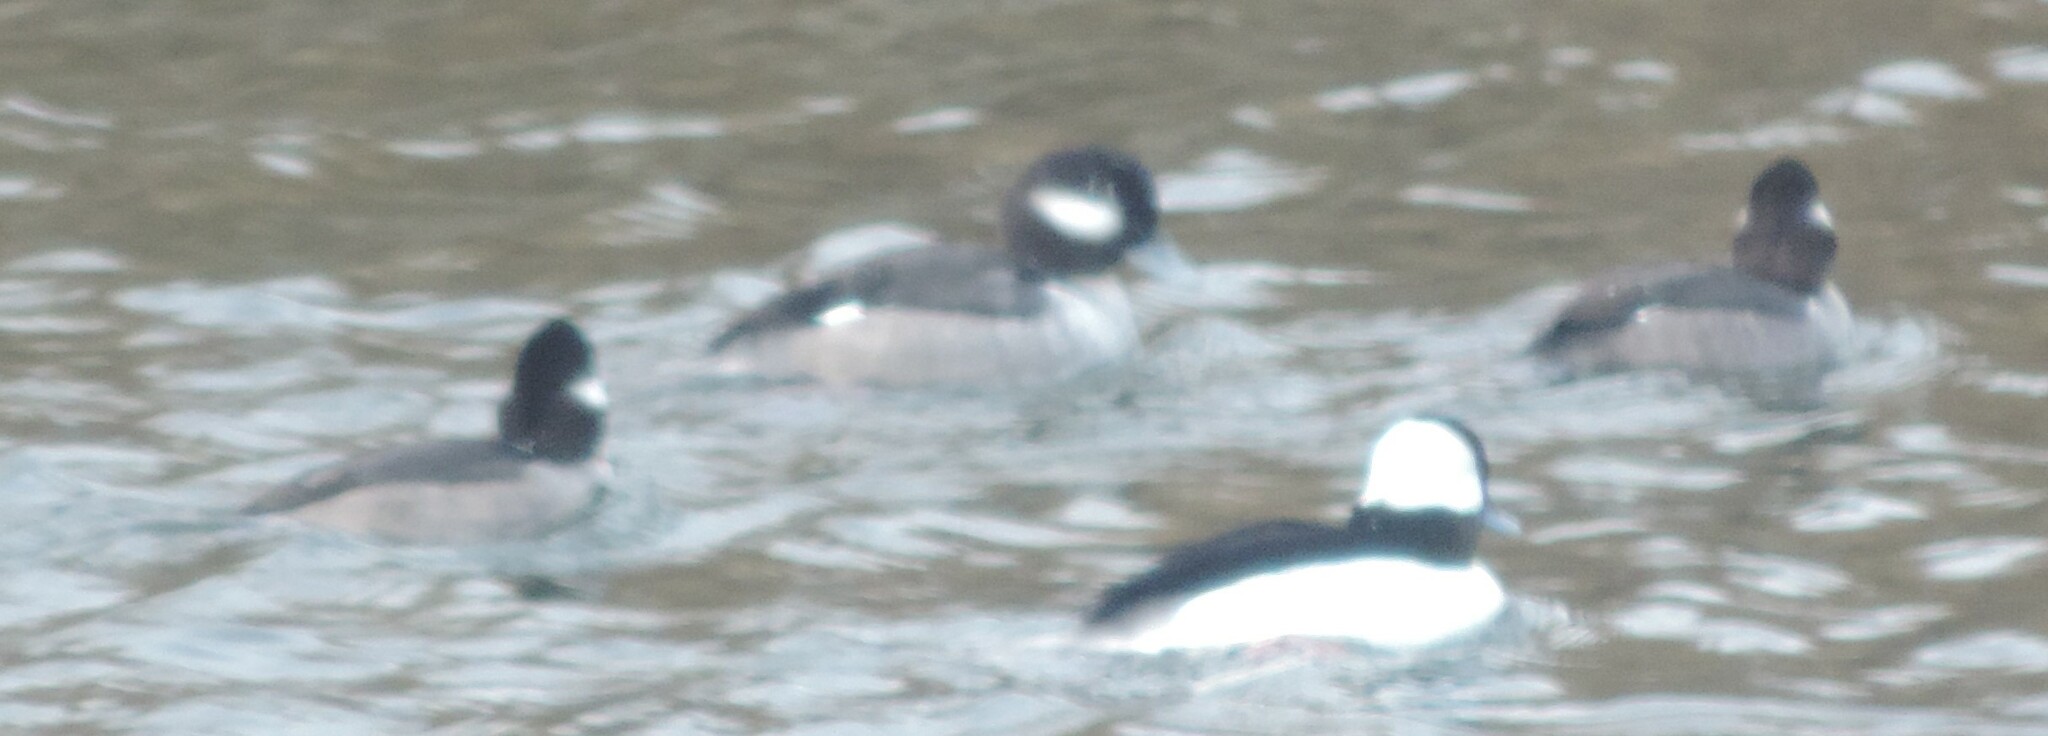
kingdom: Animalia
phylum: Chordata
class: Aves
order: Anseriformes
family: Anatidae
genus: Bucephala
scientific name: Bucephala albeola
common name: Bufflehead
